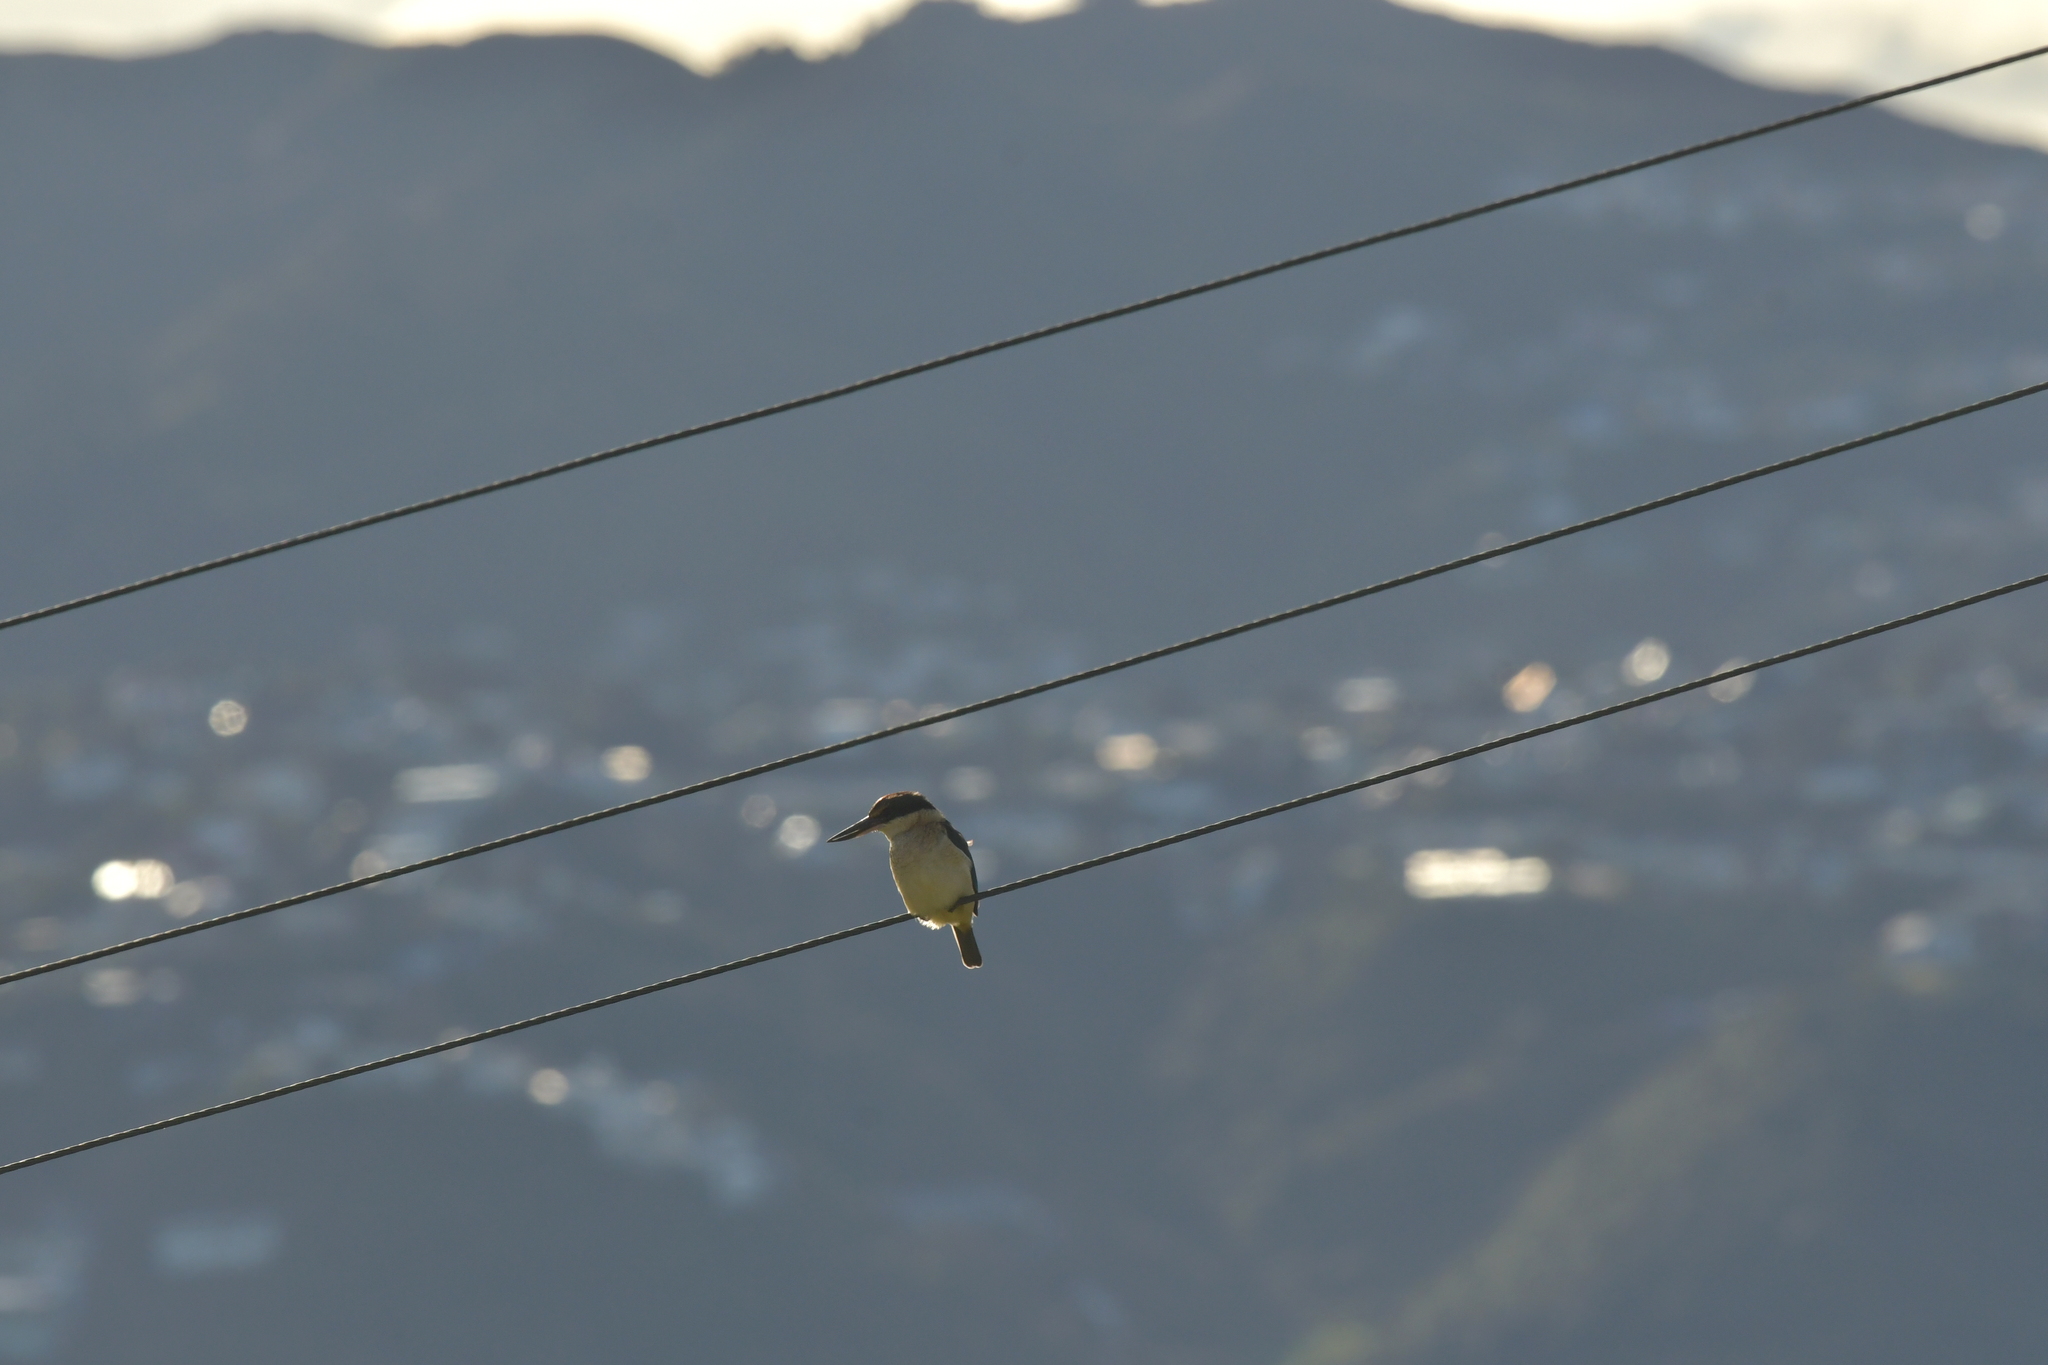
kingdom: Animalia
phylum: Chordata
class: Aves
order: Coraciiformes
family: Alcedinidae
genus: Todiramphus
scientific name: Todiramphus sanctus
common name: Sacred kingfisher
